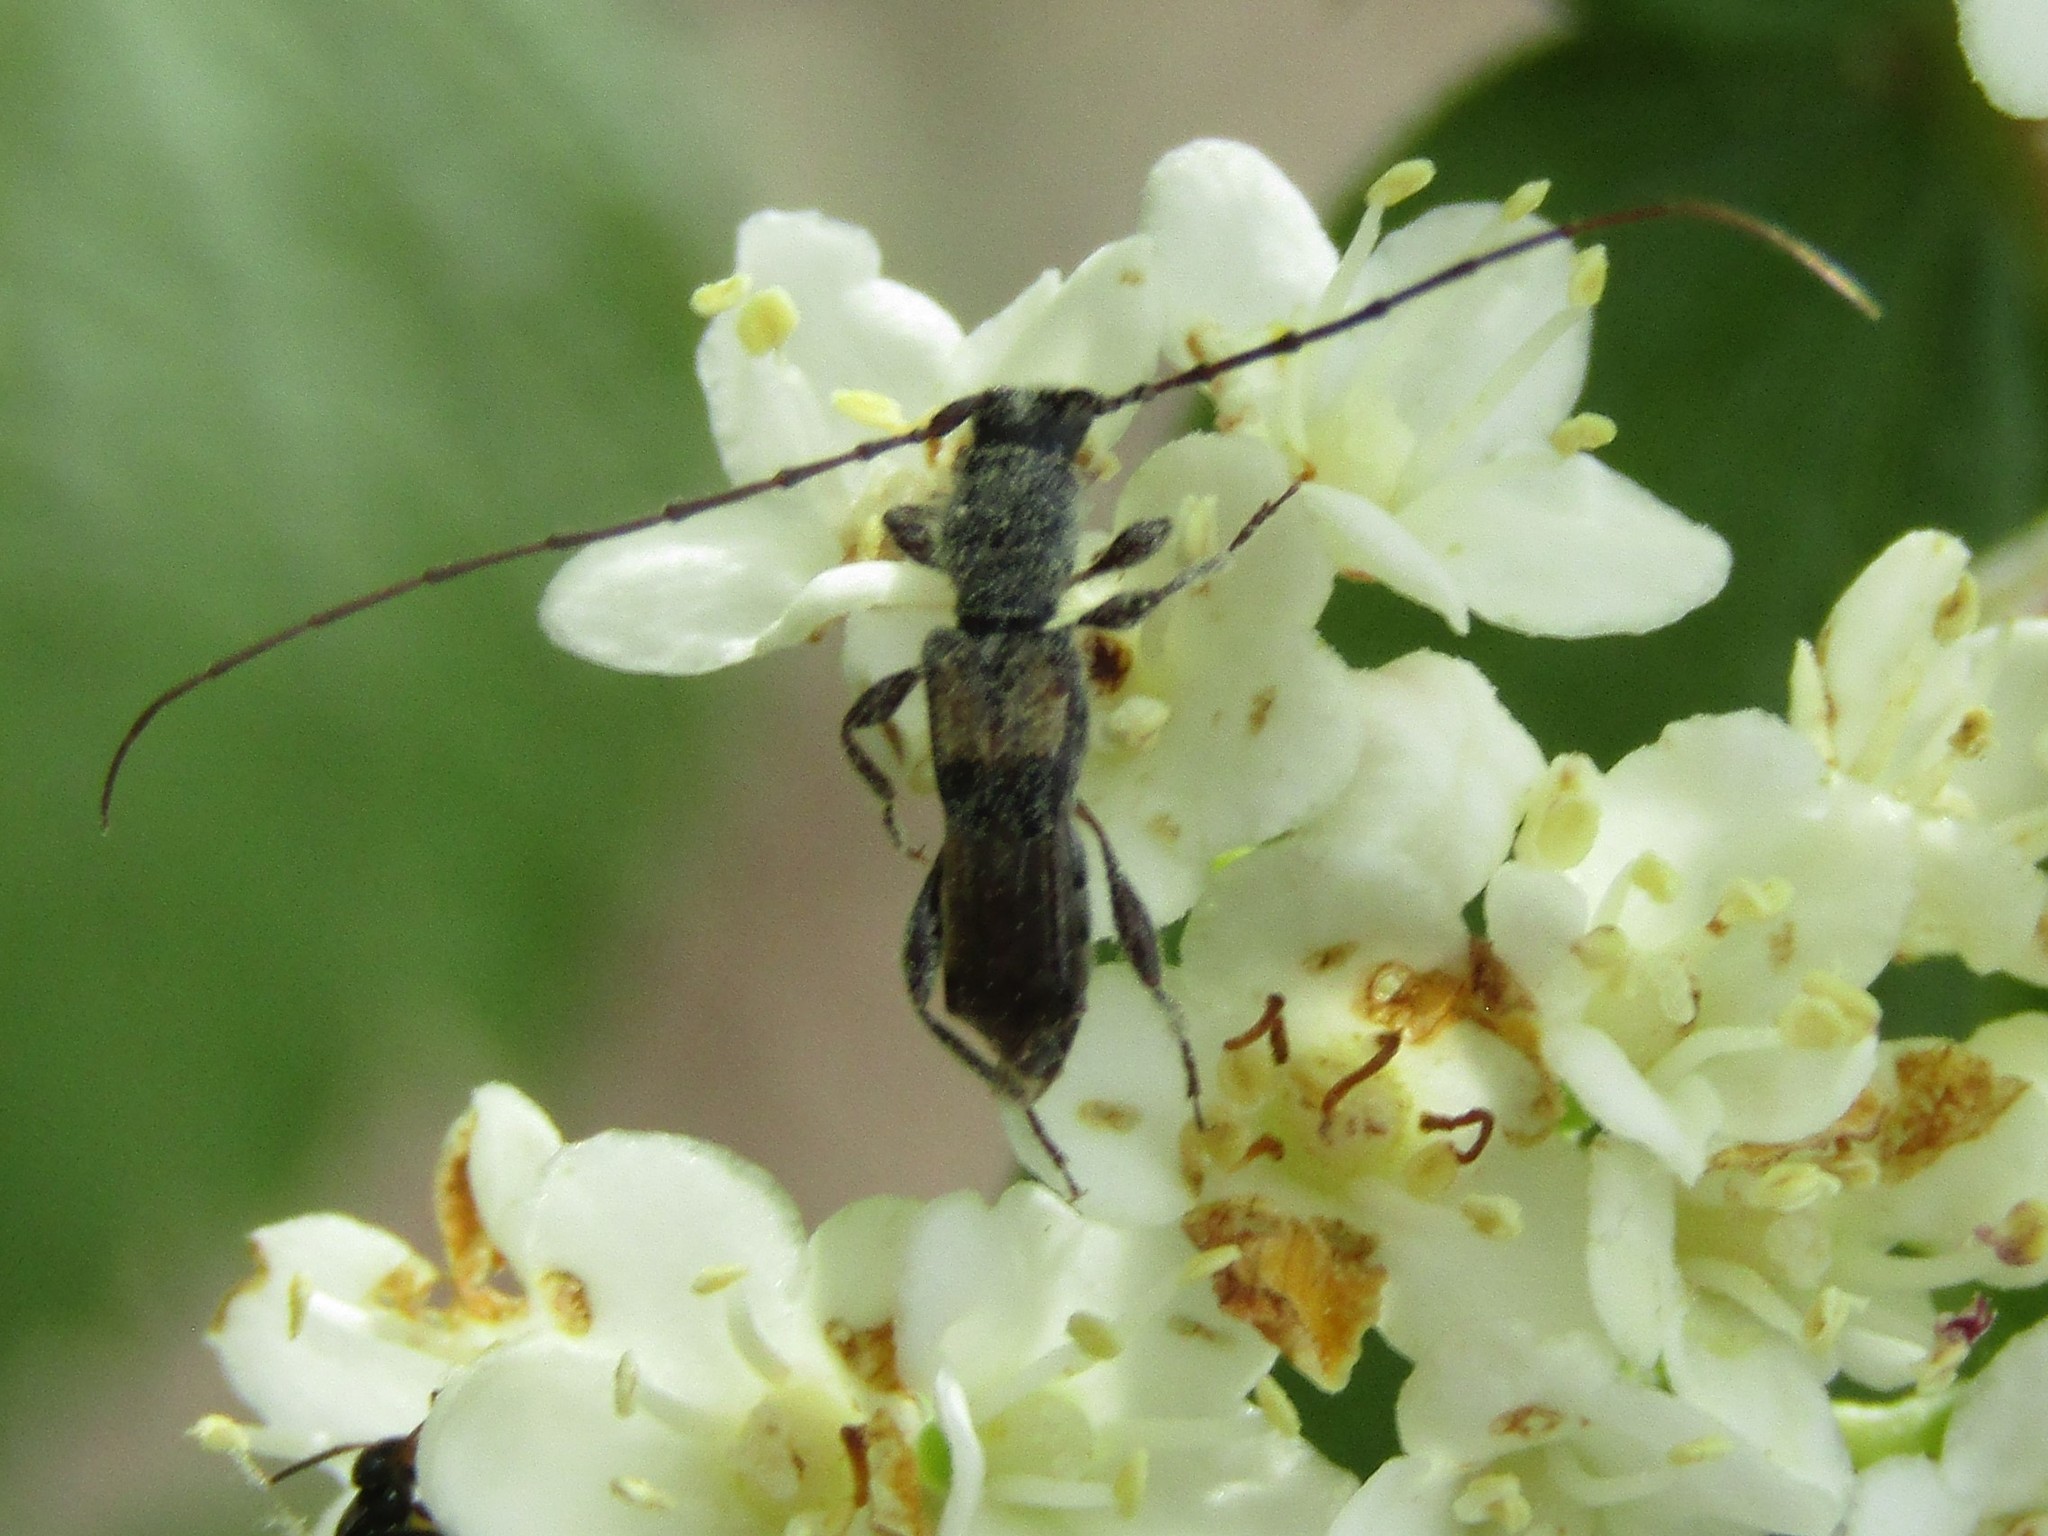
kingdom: Animalia
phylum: Arthropoda
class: Insecta
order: Coleoptera
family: Cerambycidae
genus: Molorchus
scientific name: Molorchus bimaculatus
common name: Bimaculate longhorn beetle
